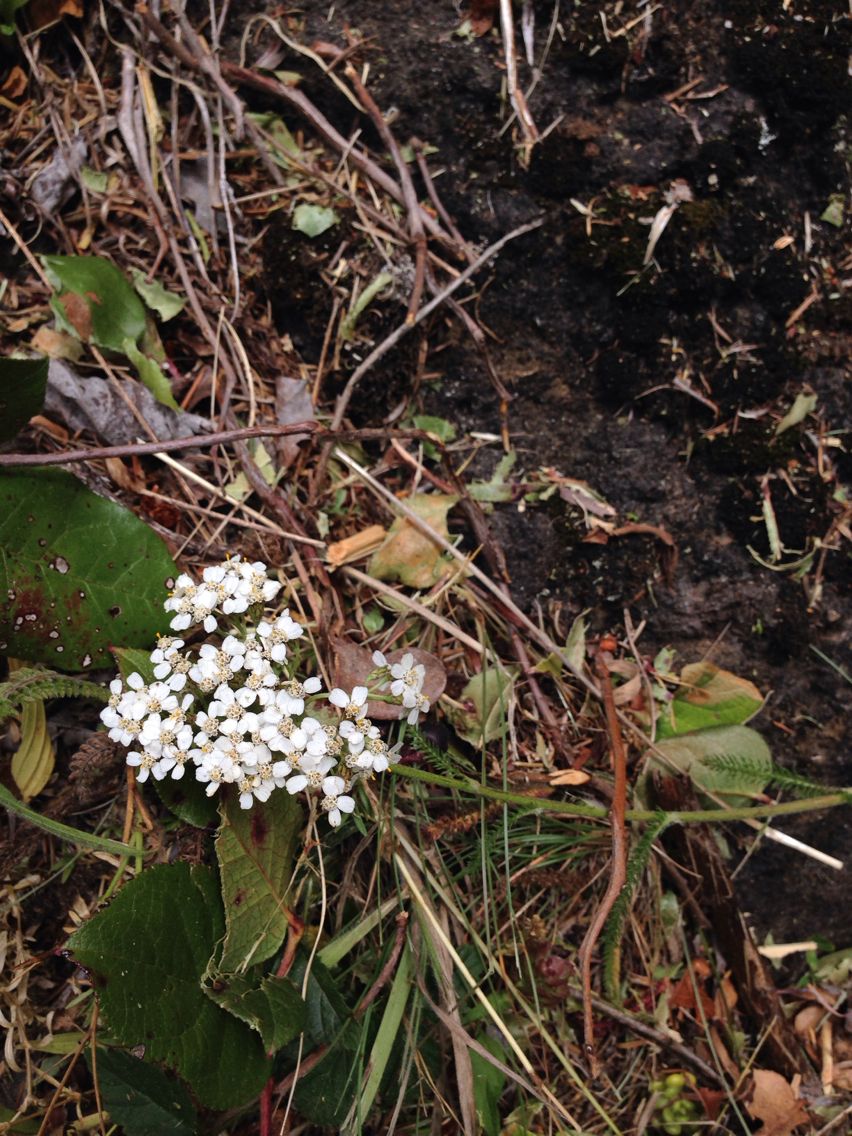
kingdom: Plantae
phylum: Tracheophyta
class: Magnoliopsida
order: Asterales
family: Asteraceae
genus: Achillea
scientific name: Achillea millefolium
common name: Yarrow
